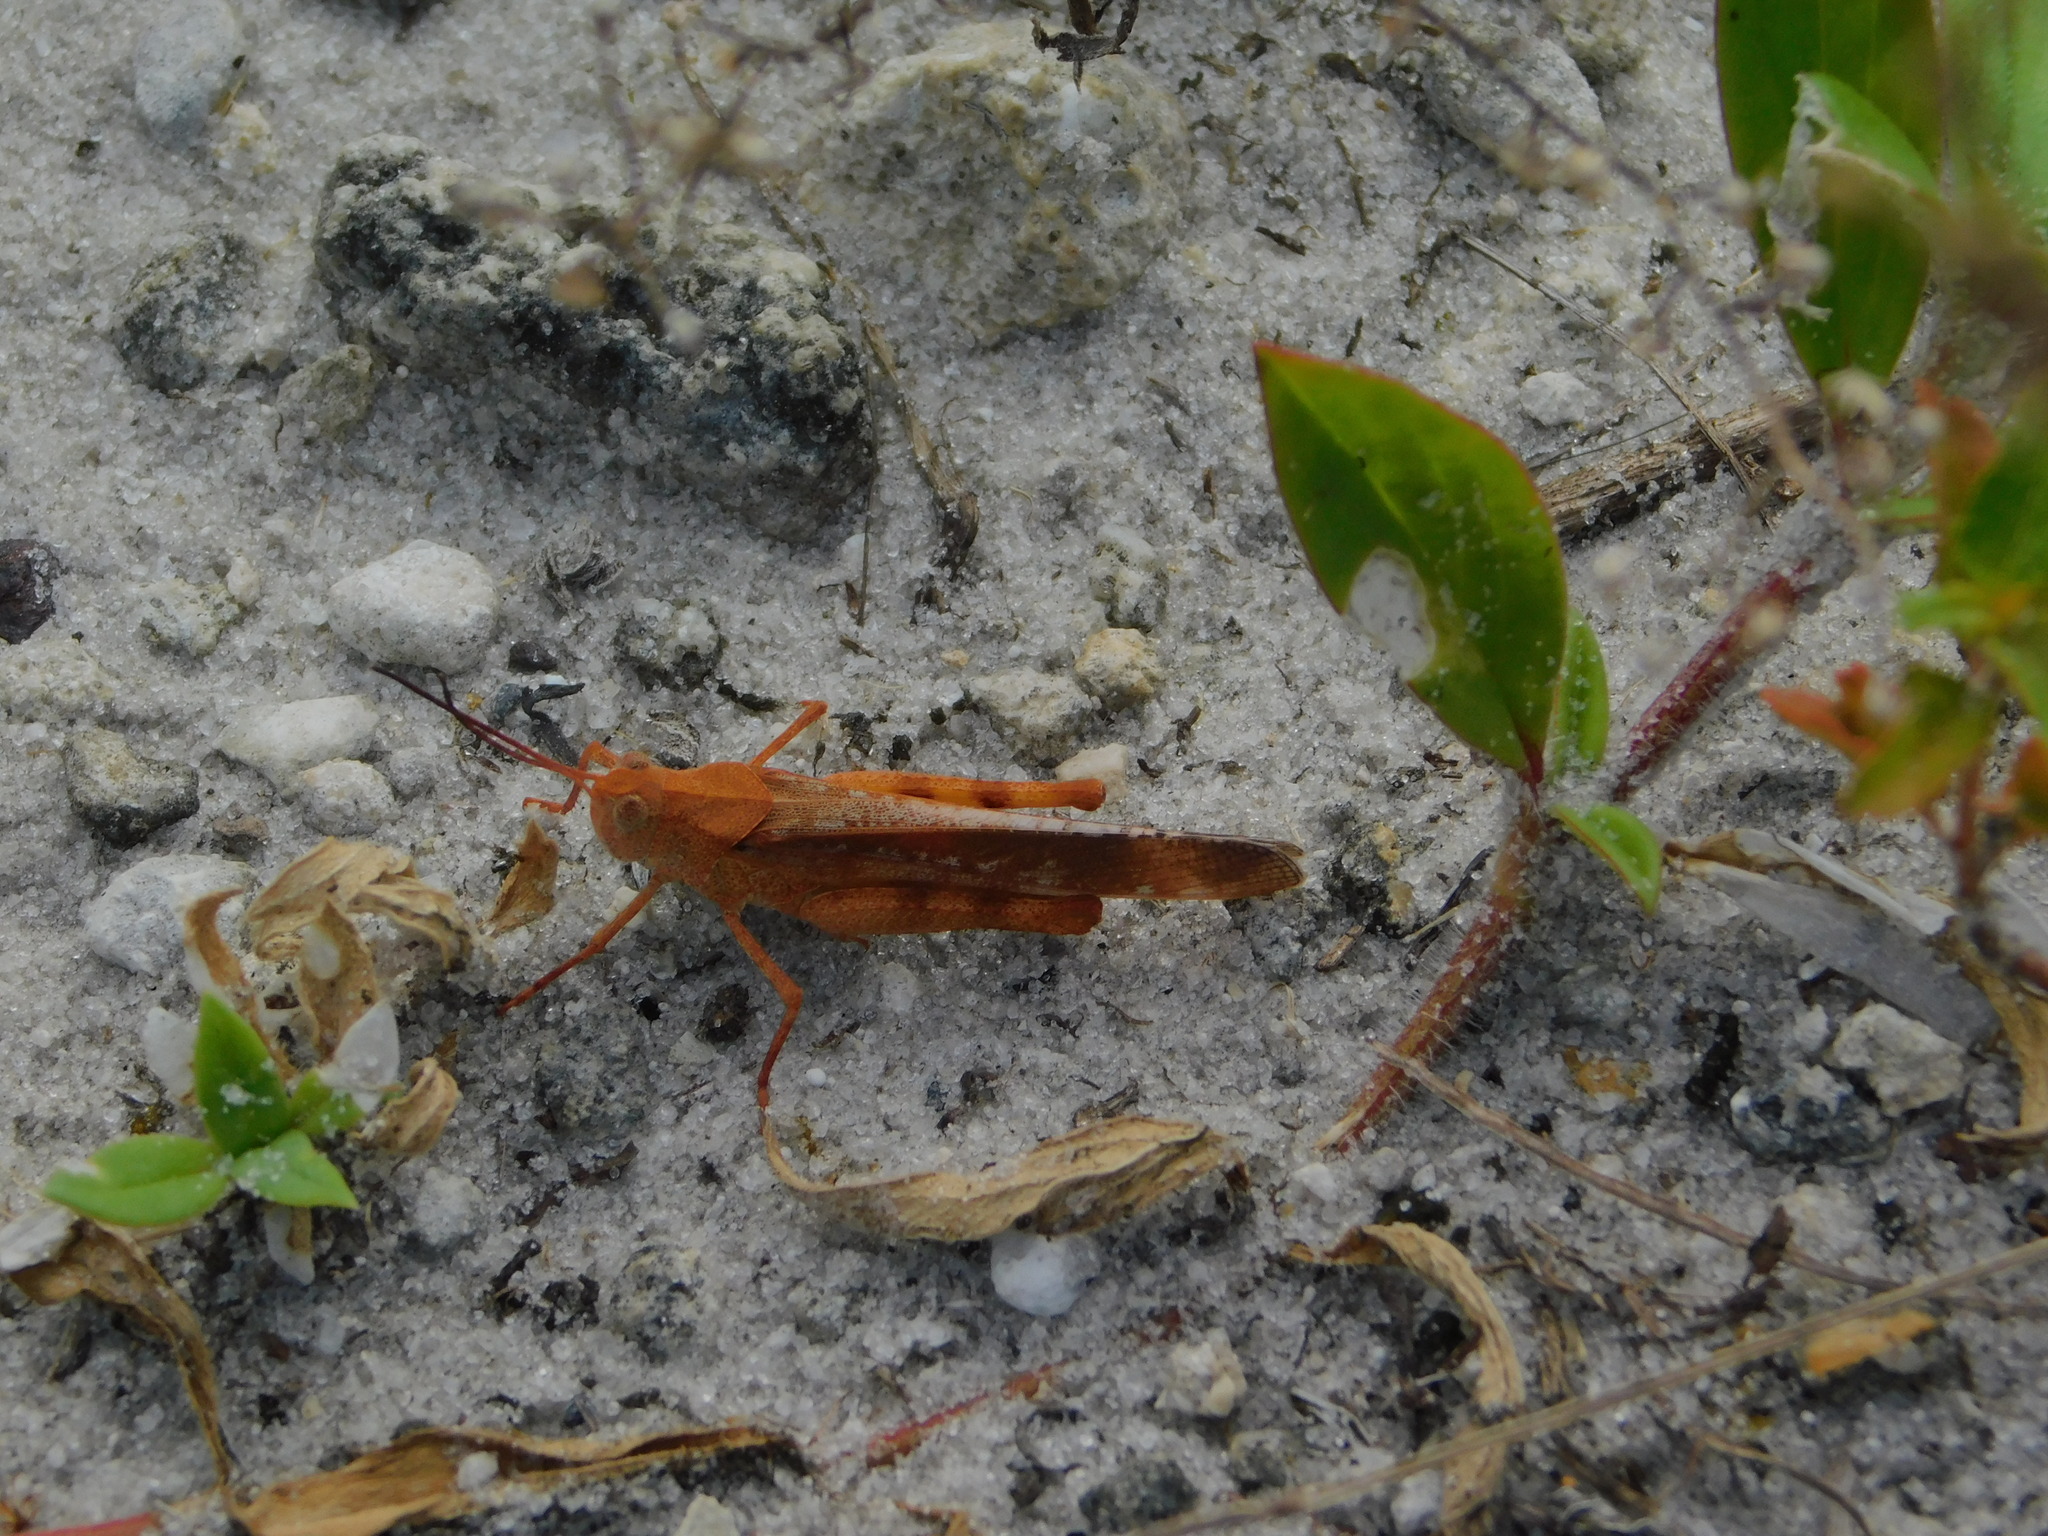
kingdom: Animalia
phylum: Arthropoda
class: Insecta
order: Orthoptera
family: Acrididae
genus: Spharagemon
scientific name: Spharagemon marmoratum
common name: Marbled grasshopper
